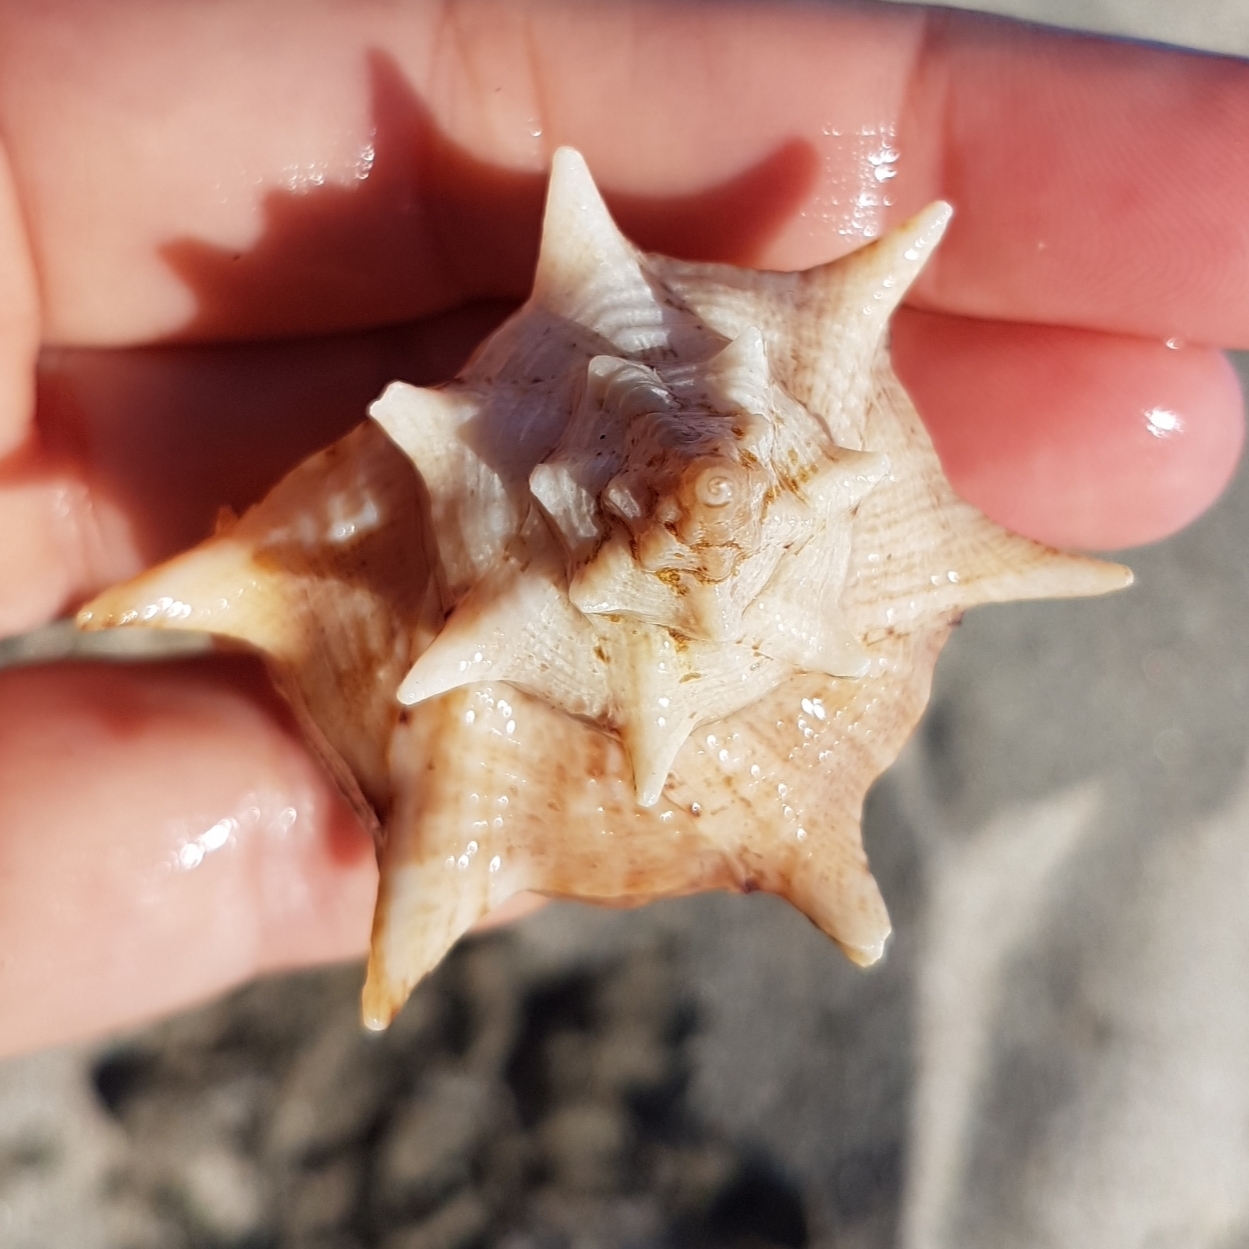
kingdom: Animalia
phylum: Mollusca
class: Gastropoda
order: Neogastropoda
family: Muricidae
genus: Bolinus
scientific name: Bolinus brandaris
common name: Dye murex
